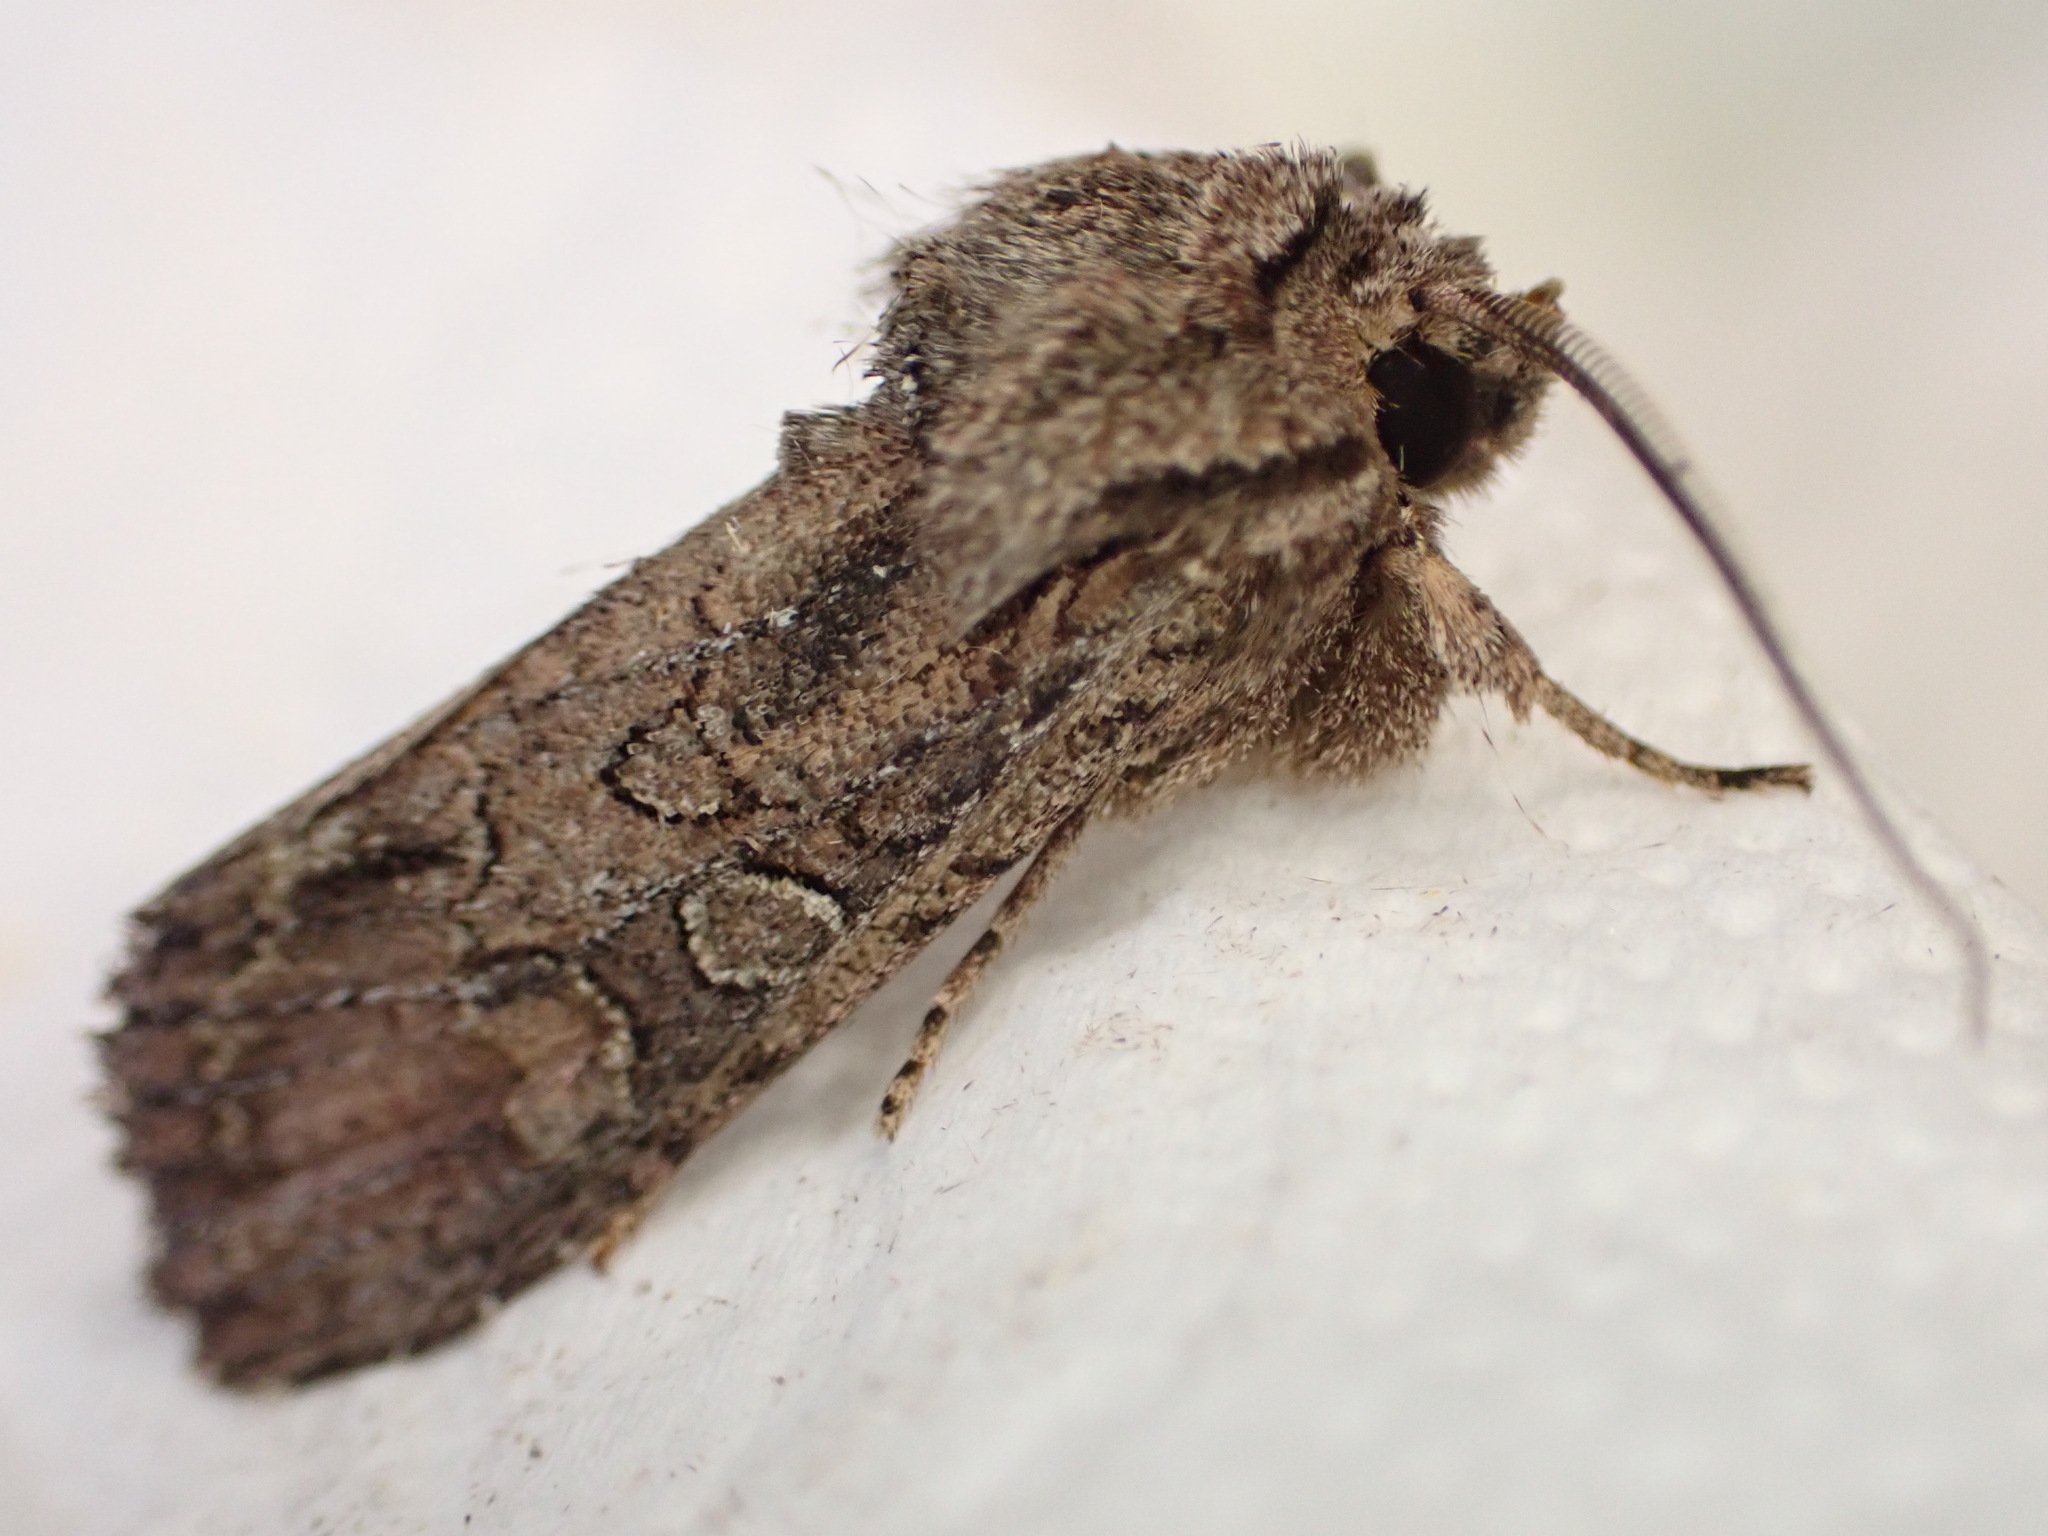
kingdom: Animalia
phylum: Arthropoda
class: Insecta
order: Lepidoptera
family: Noctuidae
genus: Ichneutica
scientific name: Ichneutica mutans
